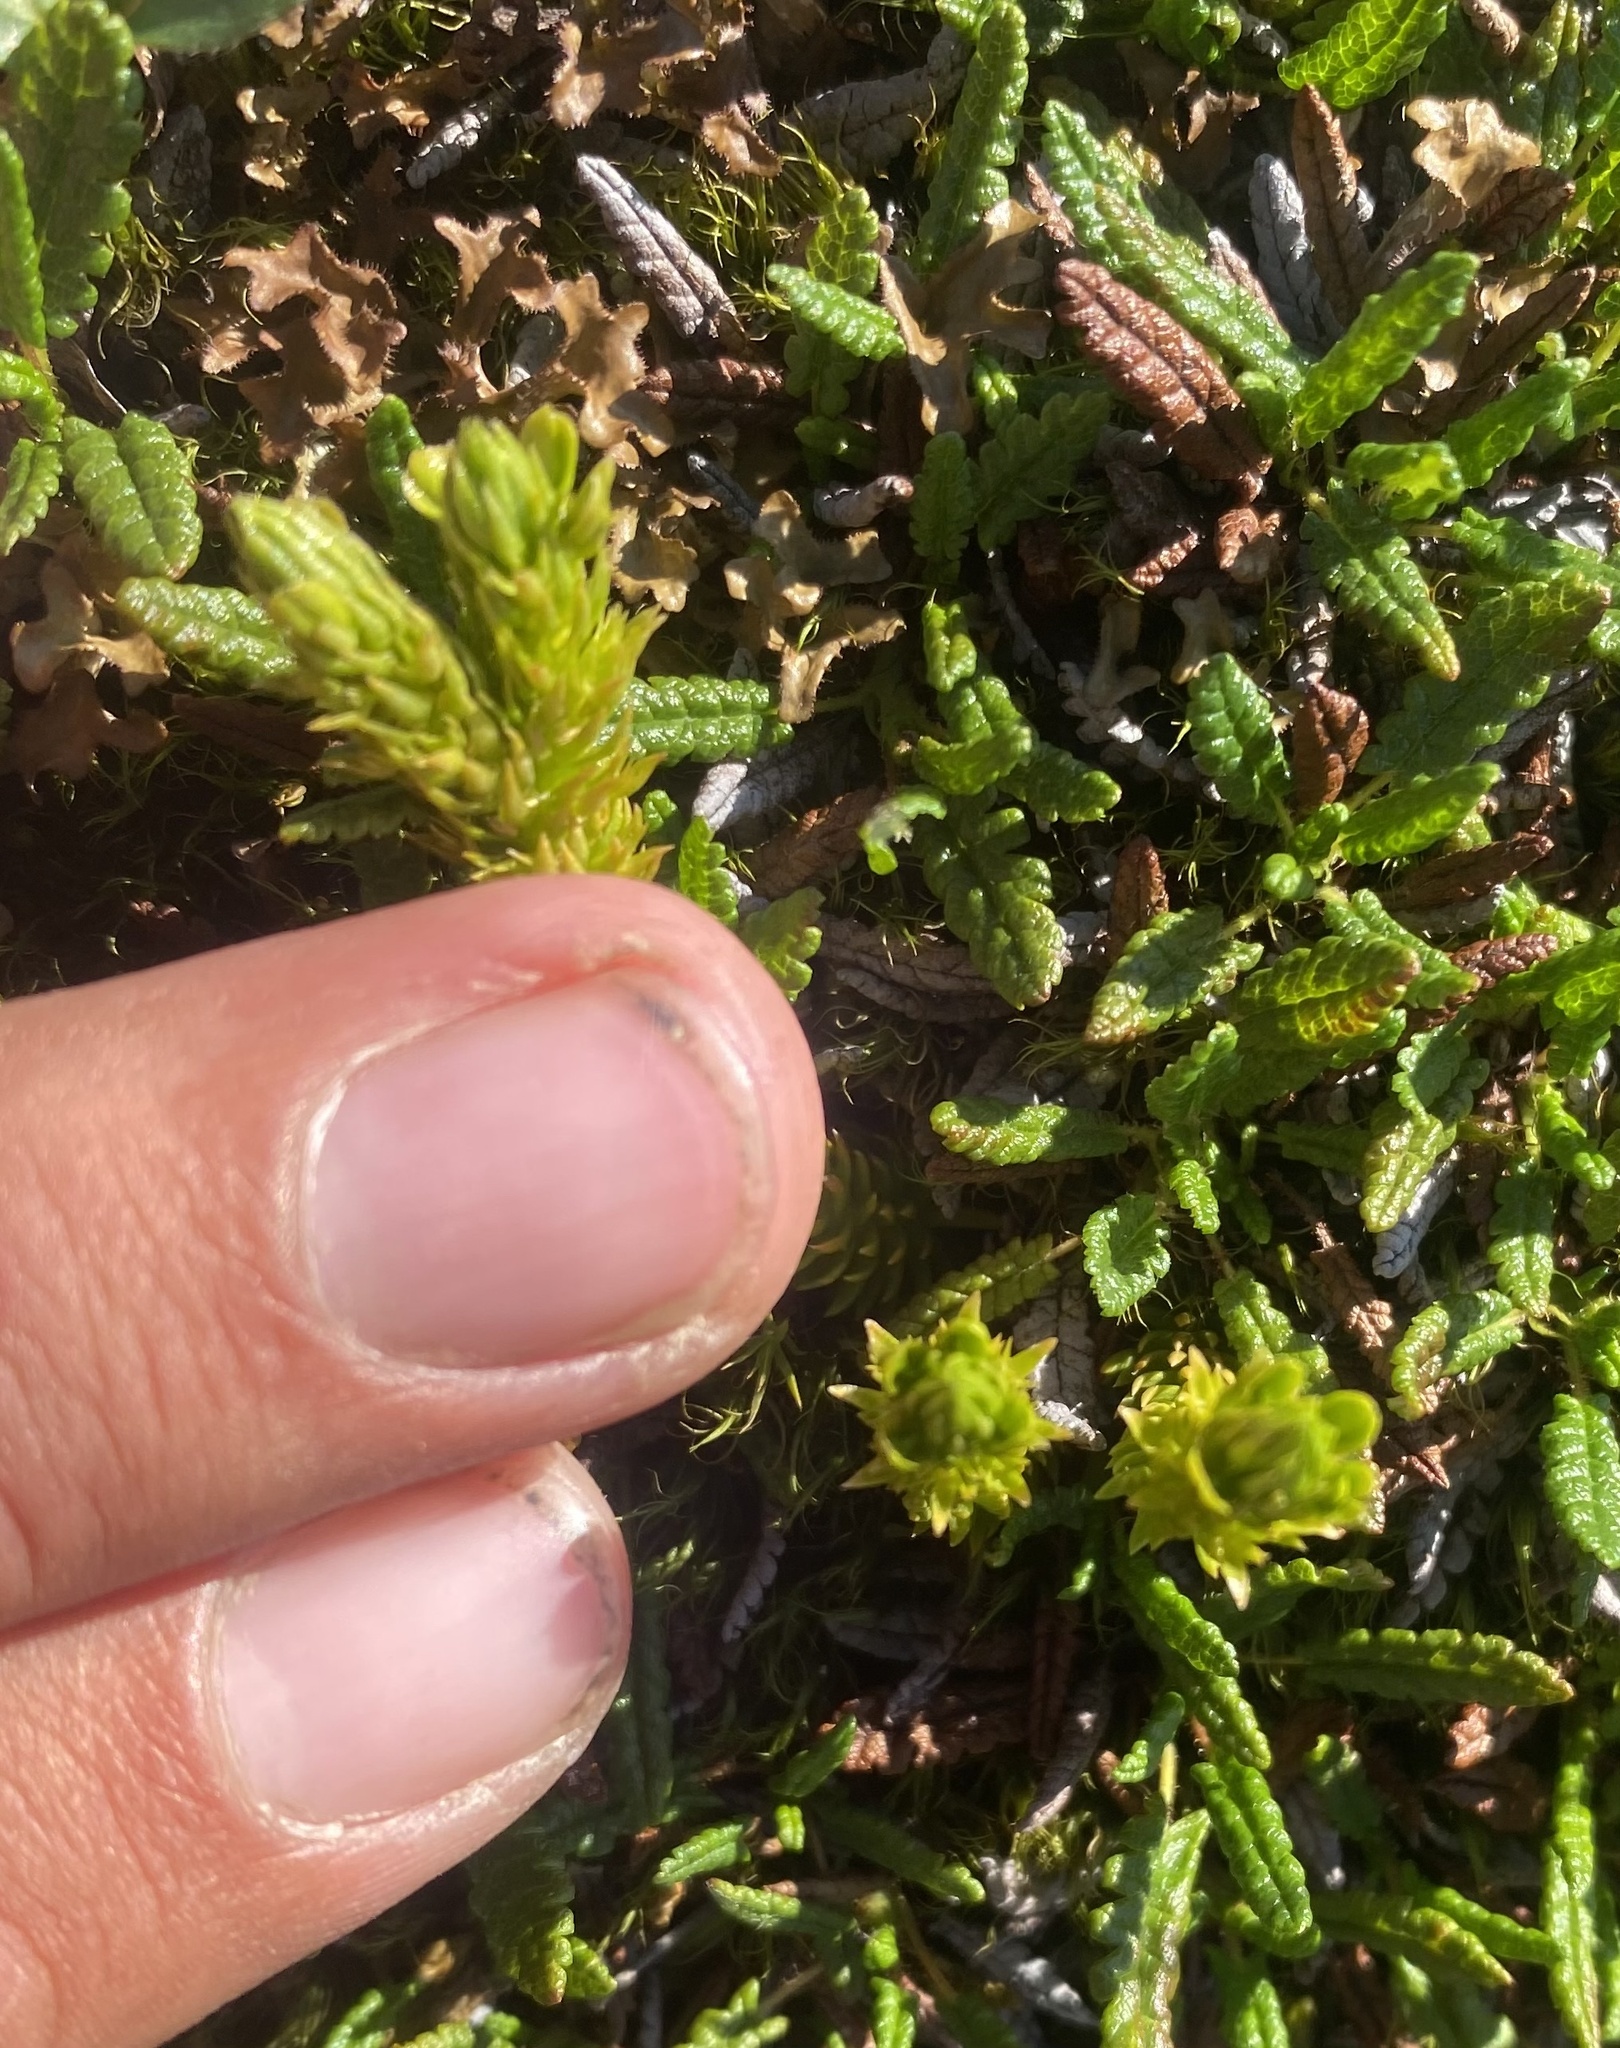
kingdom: Plantae
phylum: Tracheophyta
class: Lycopodiopsida
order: Lycopodiales
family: Lycopodiaceae
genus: Huperzia
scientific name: Huperzia selago
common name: Northern firmoss
